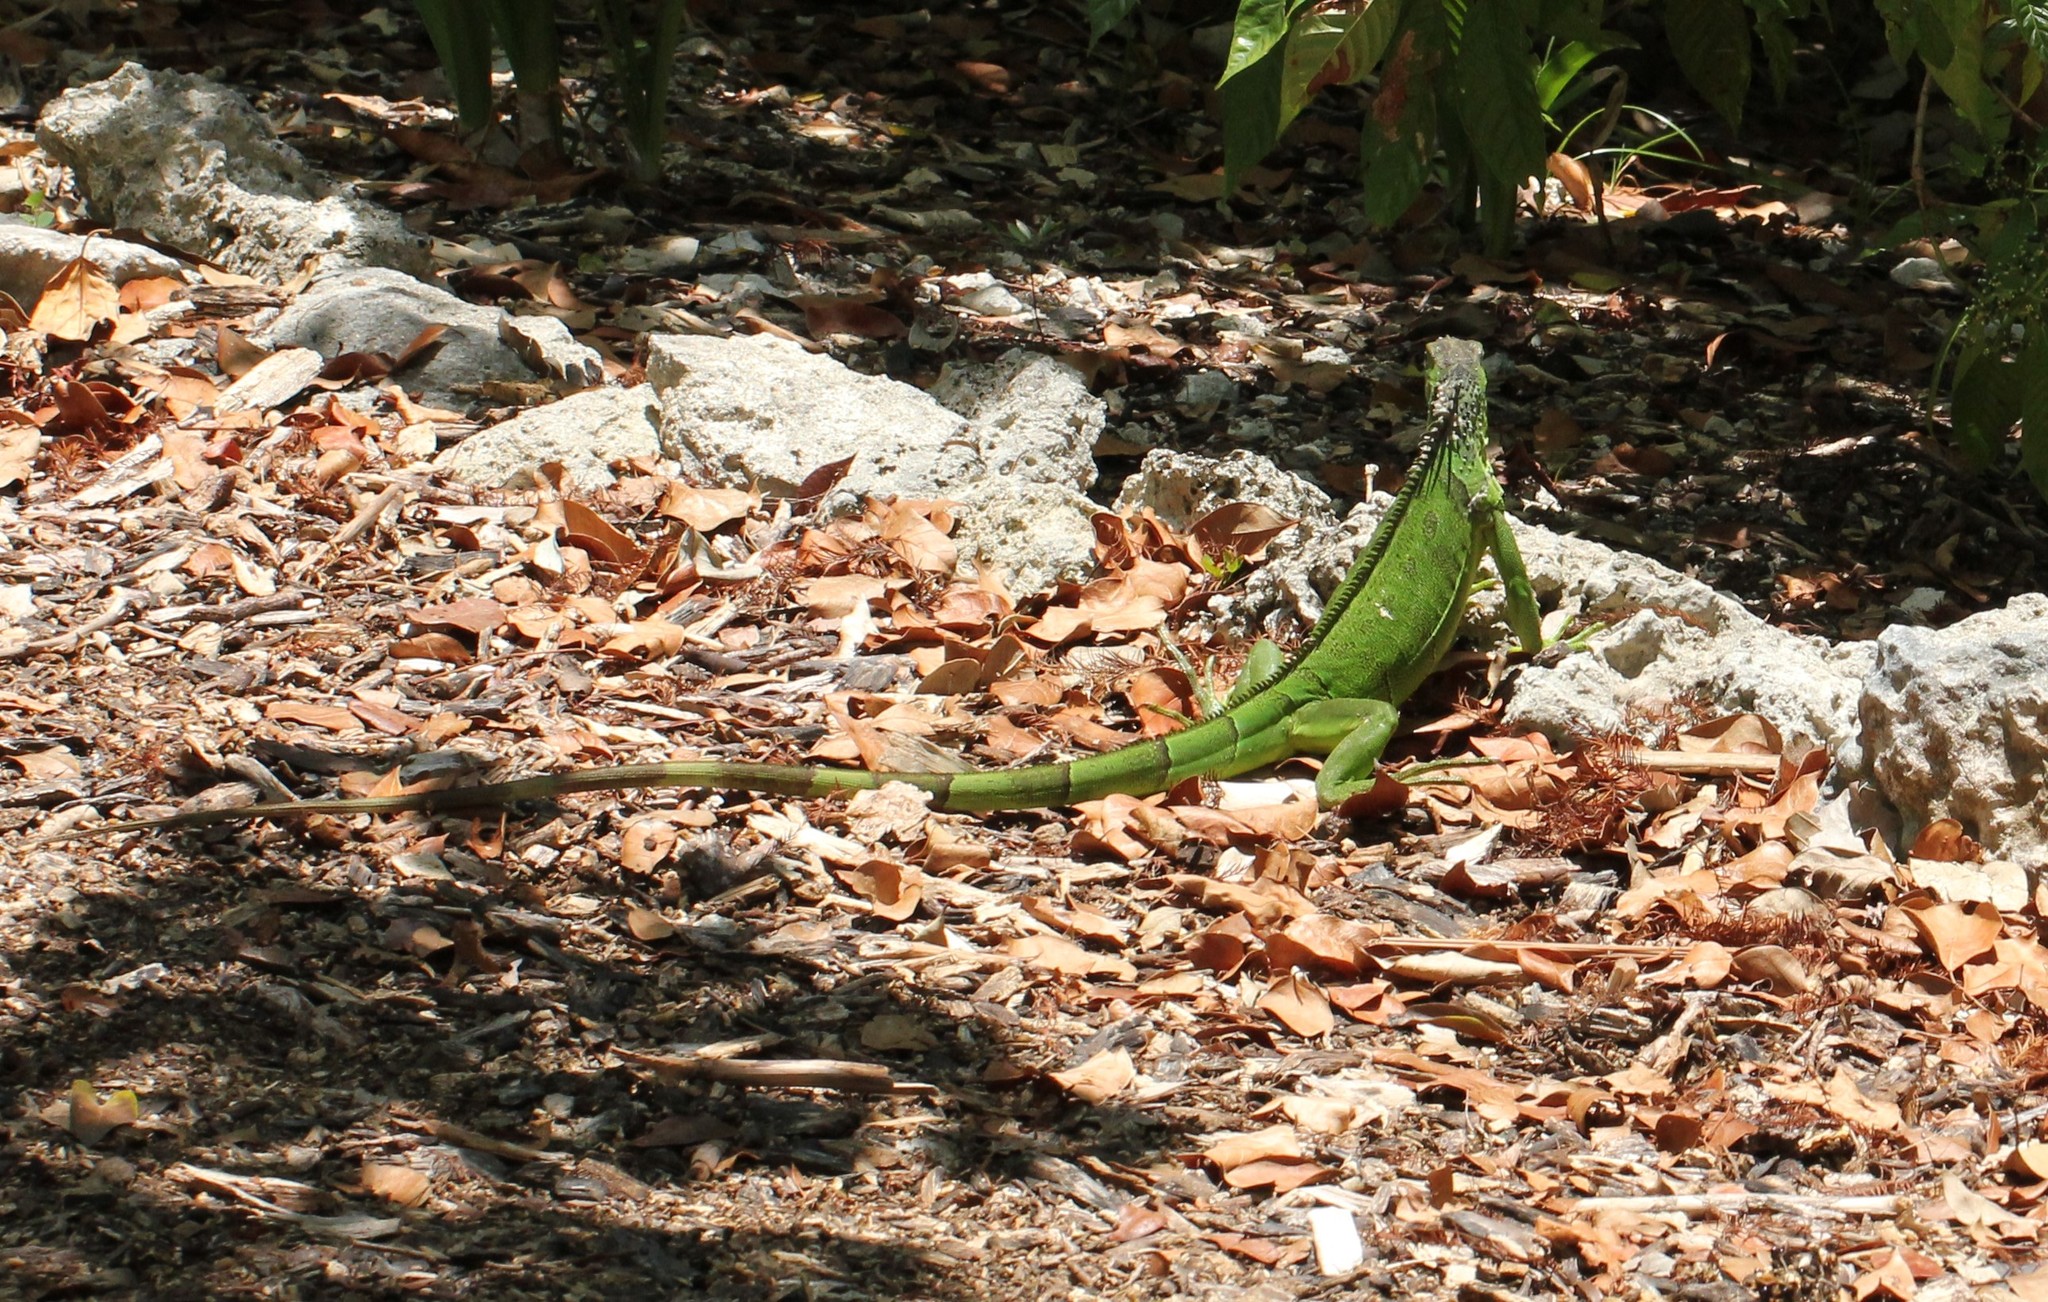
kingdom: Animalia
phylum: Chordata
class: Squamata
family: Iguanidae
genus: Iguana
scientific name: Iguana iguana
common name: Green iguana
